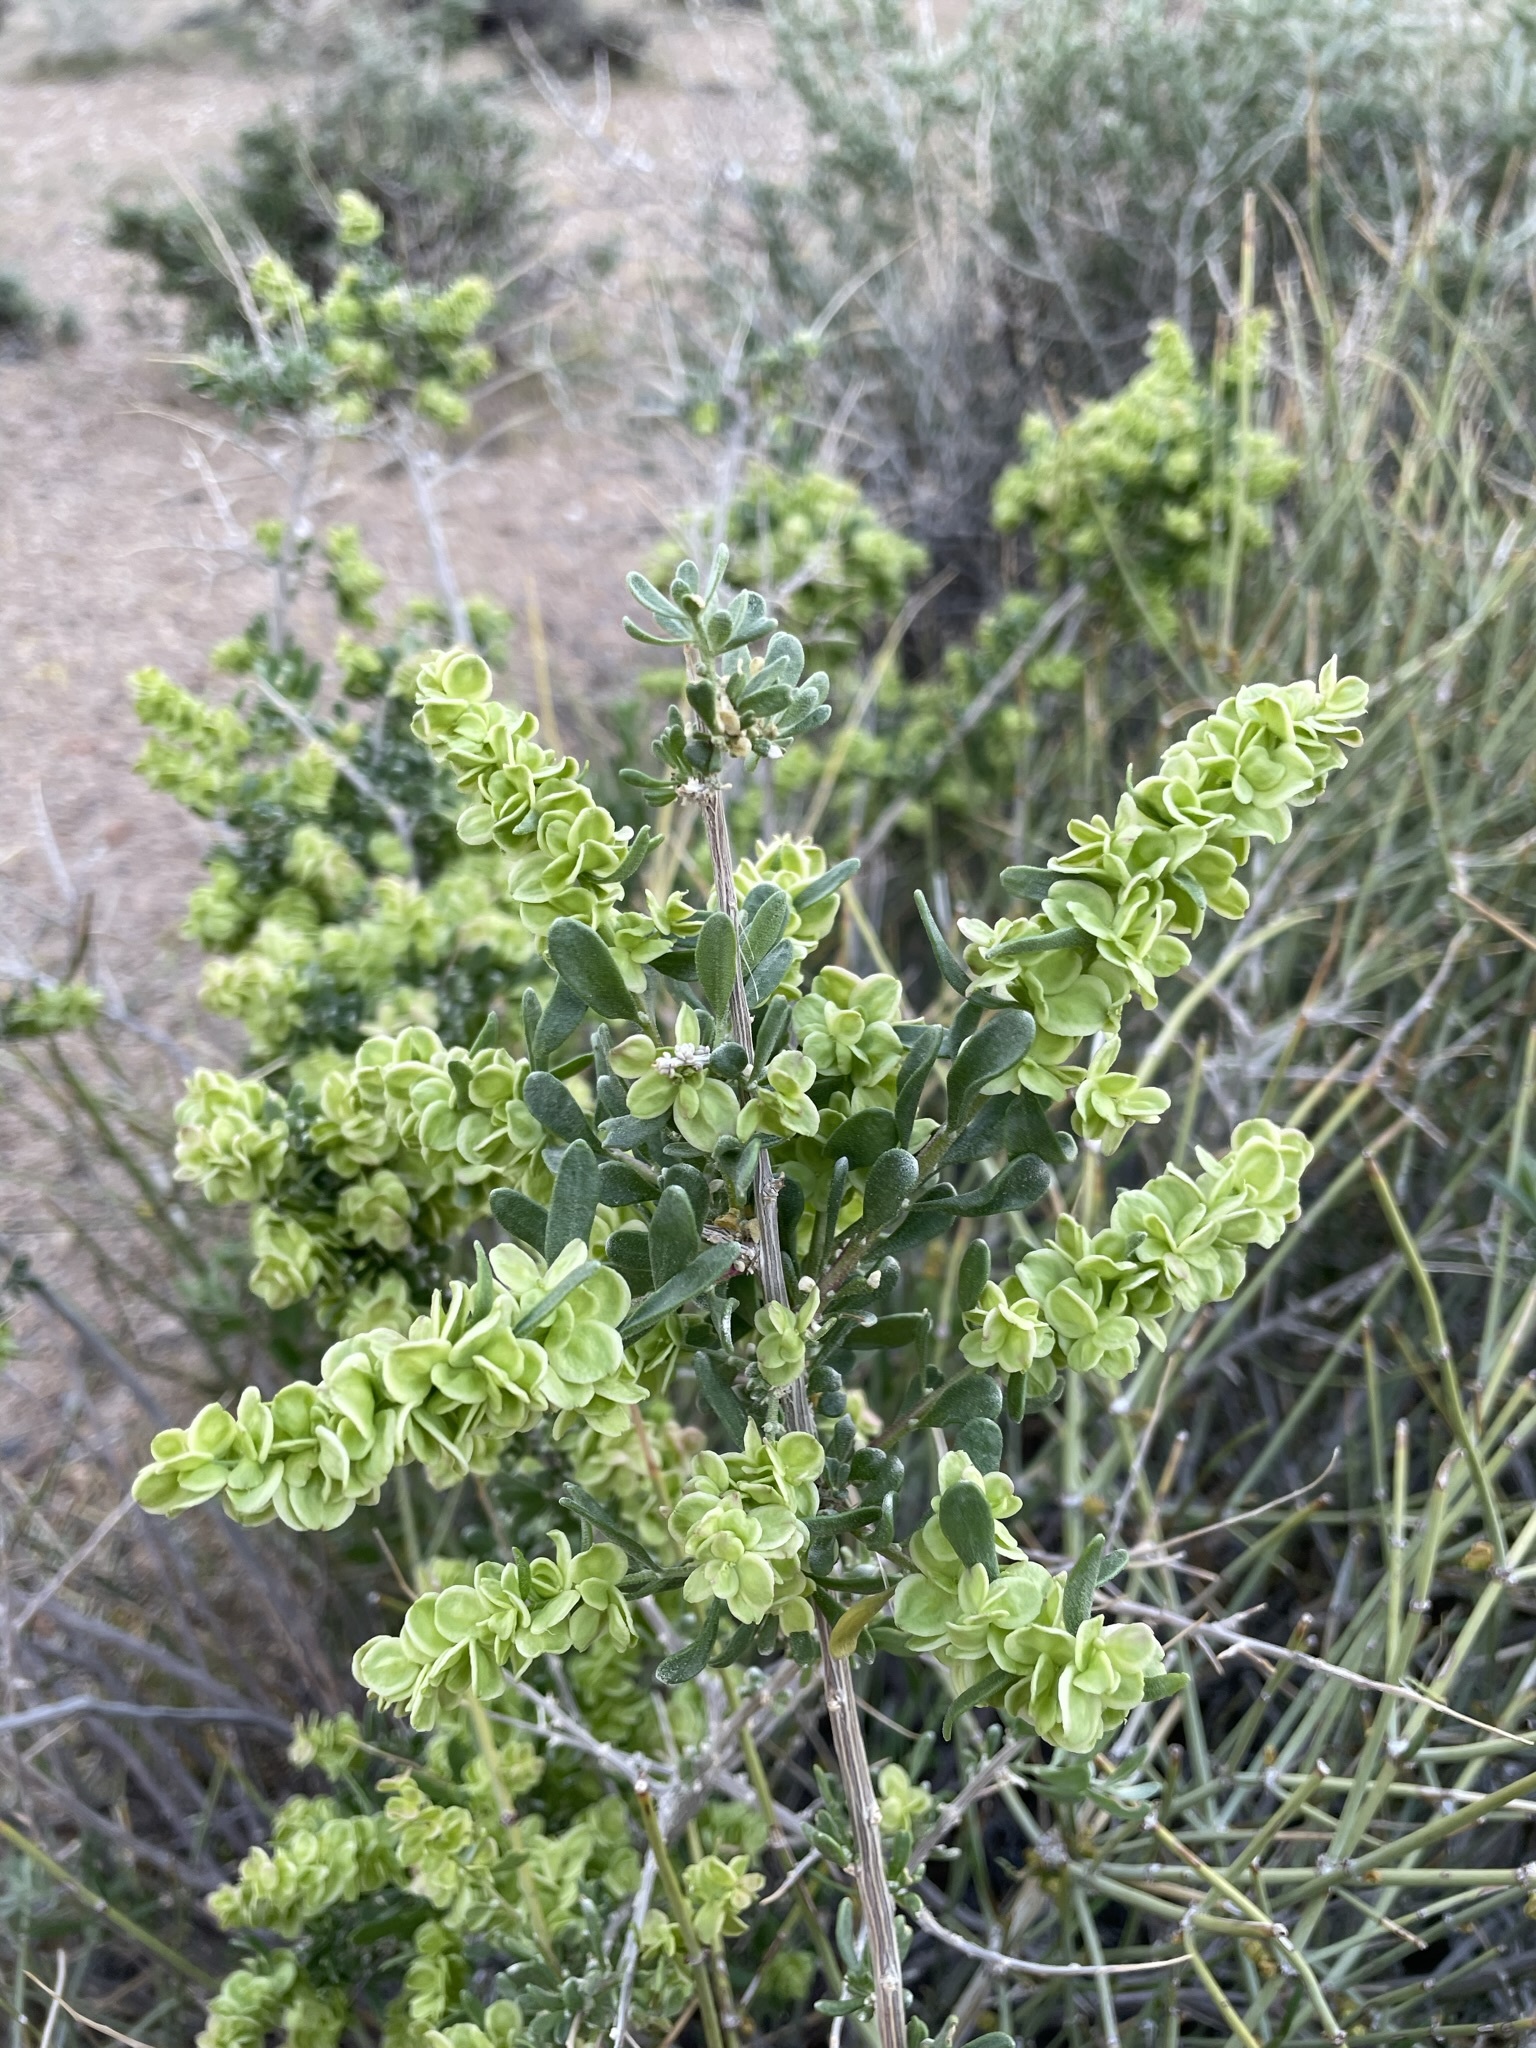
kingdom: Plantae
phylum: Tracheophyta
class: Magnoliopsida
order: Caryophyllales
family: Amaranthaceae
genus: Grayia
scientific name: Grayia spinosa
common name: Spiny hopsage
